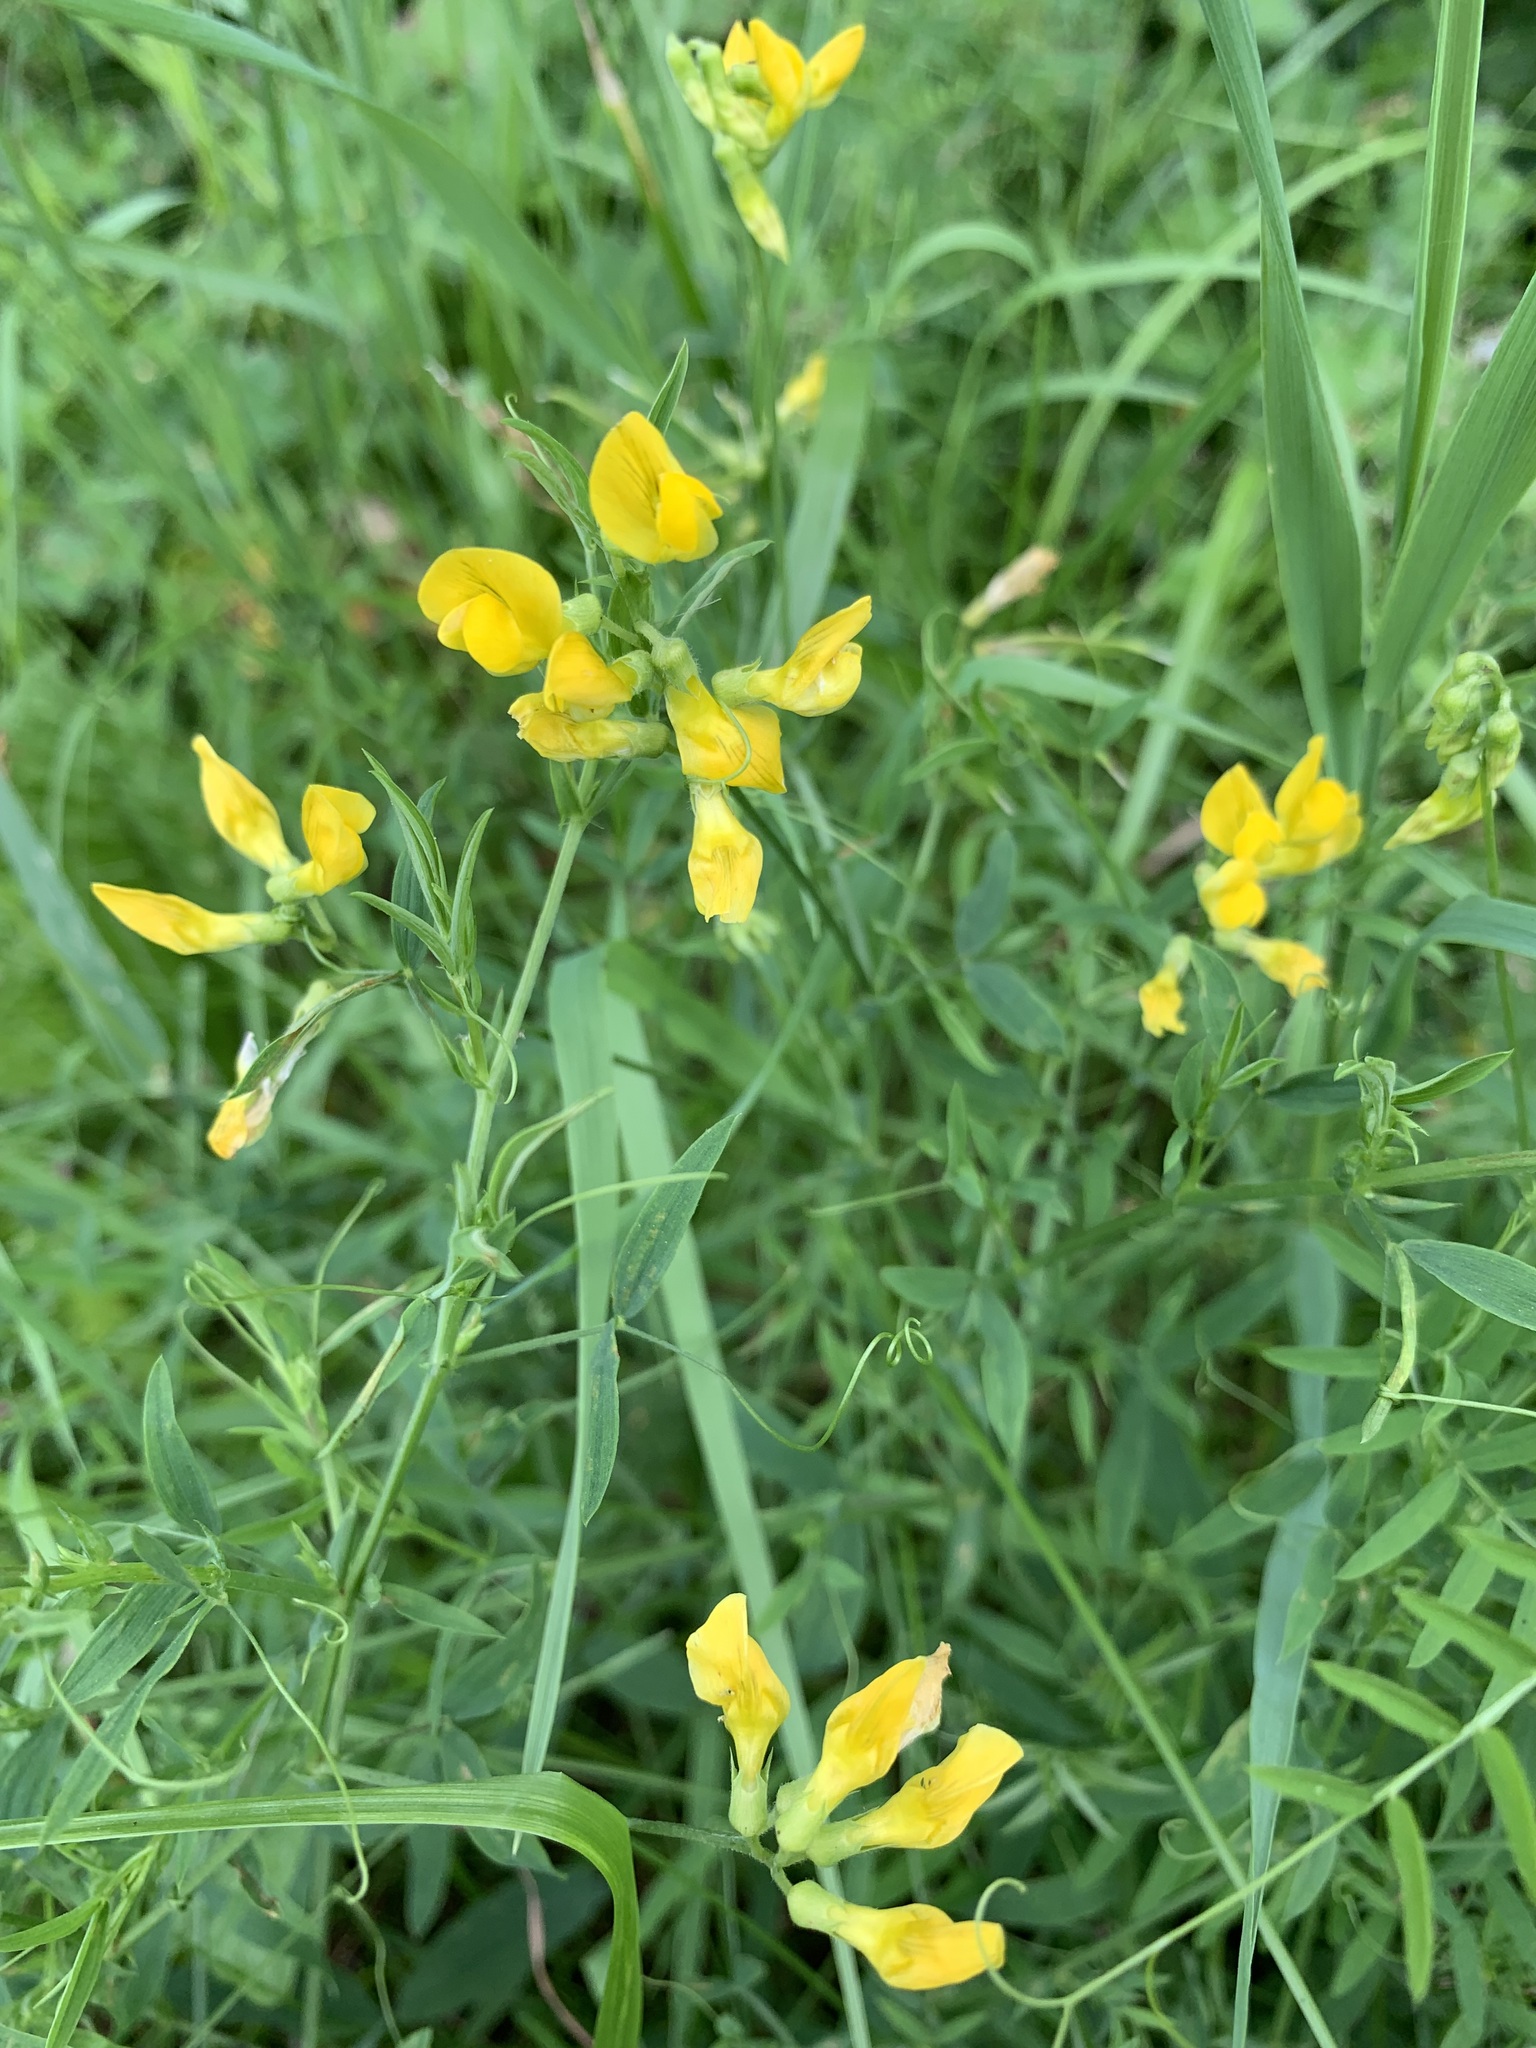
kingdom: Plantae
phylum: Tracheophyta
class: Magnoliopsida
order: Fabales
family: Fabaceae
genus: Lathyrus
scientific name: Lathyrus pratensis
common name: Meadow vetchling
